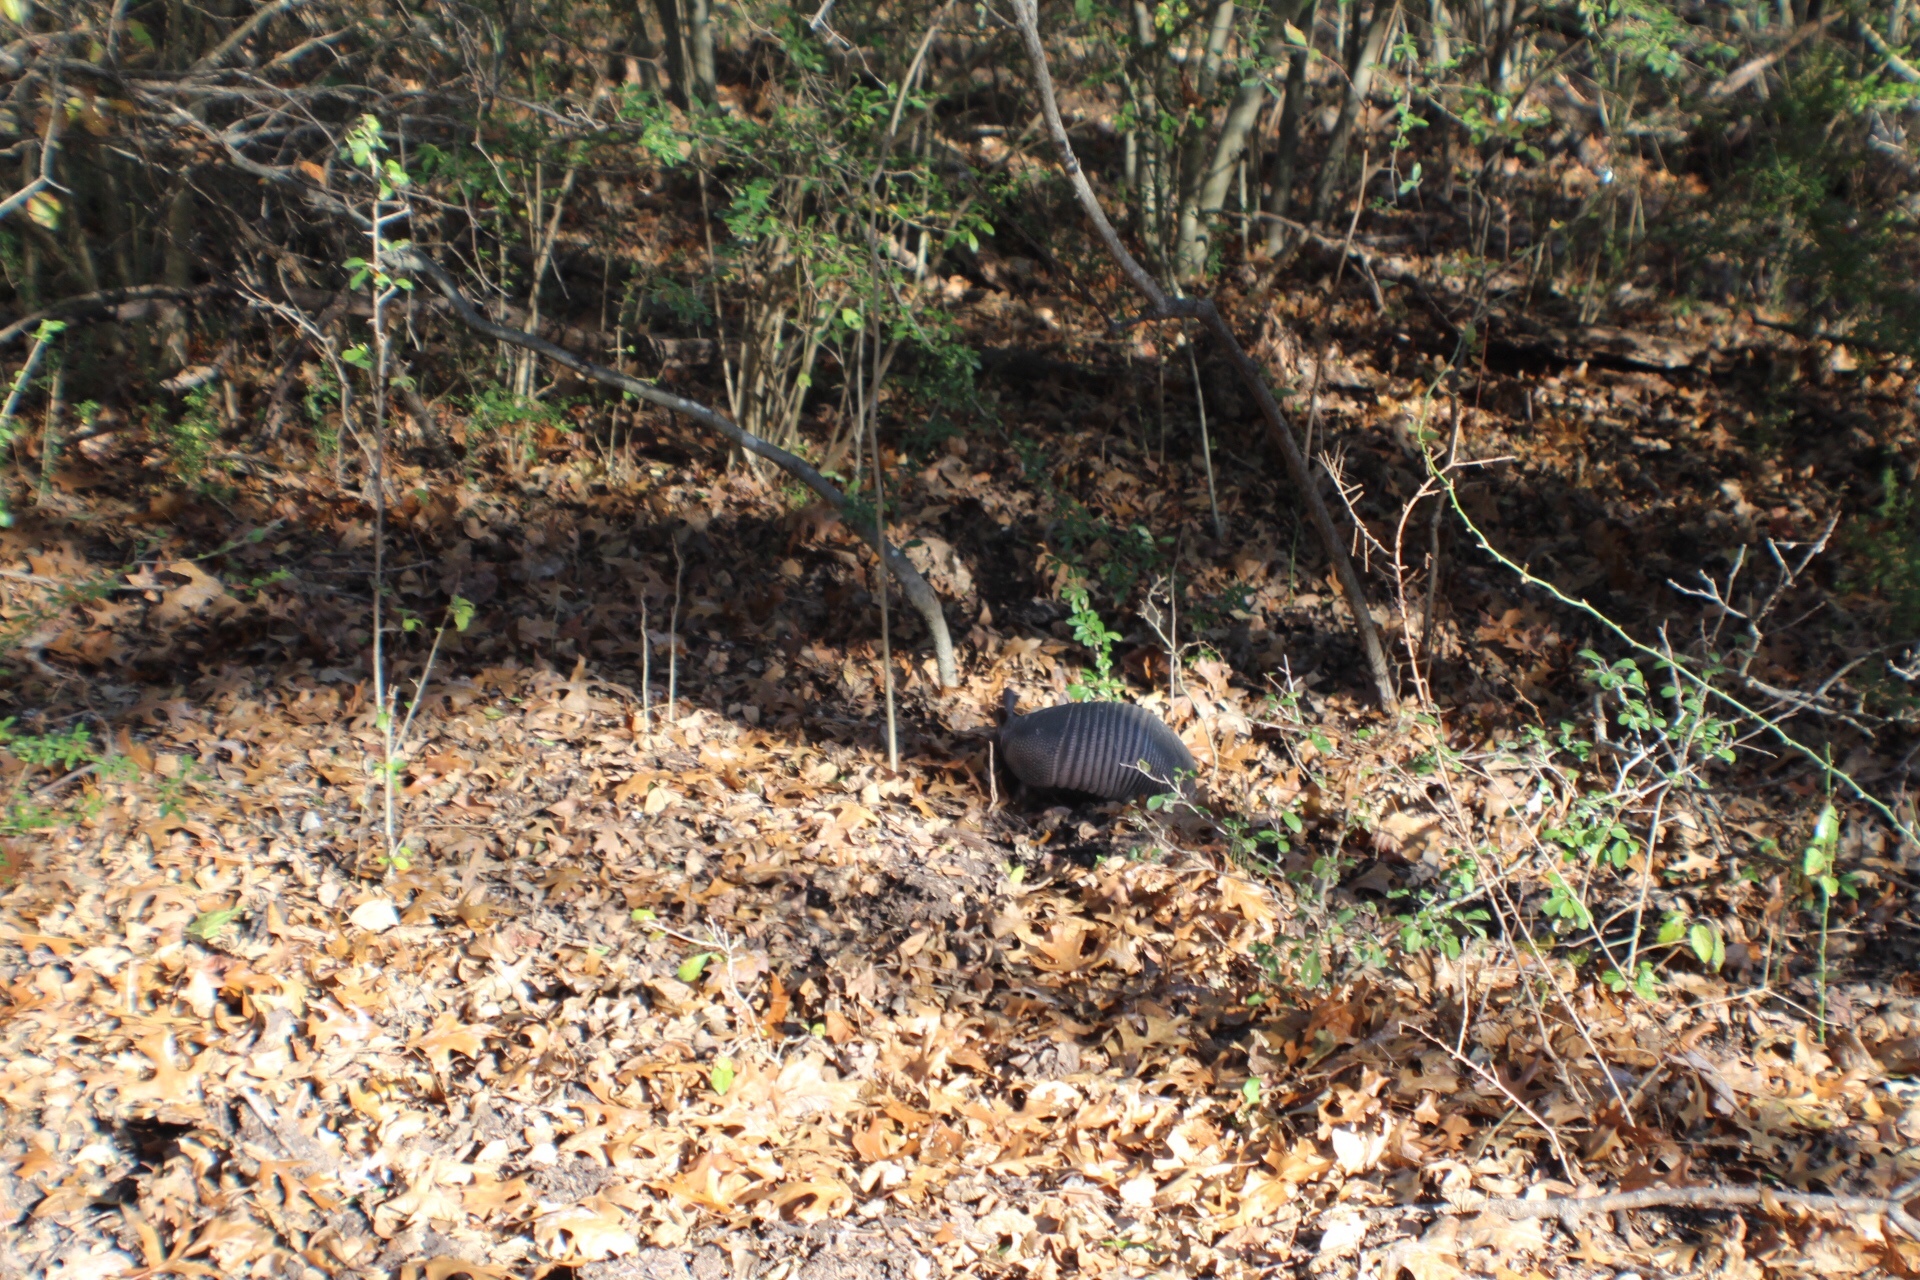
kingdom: Animalia
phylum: Chordata
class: Mammalia
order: Cingulata
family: Dasypodidae
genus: Dasypus
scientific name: Dasypus novemcinctus
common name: Nine-banded armadillo
